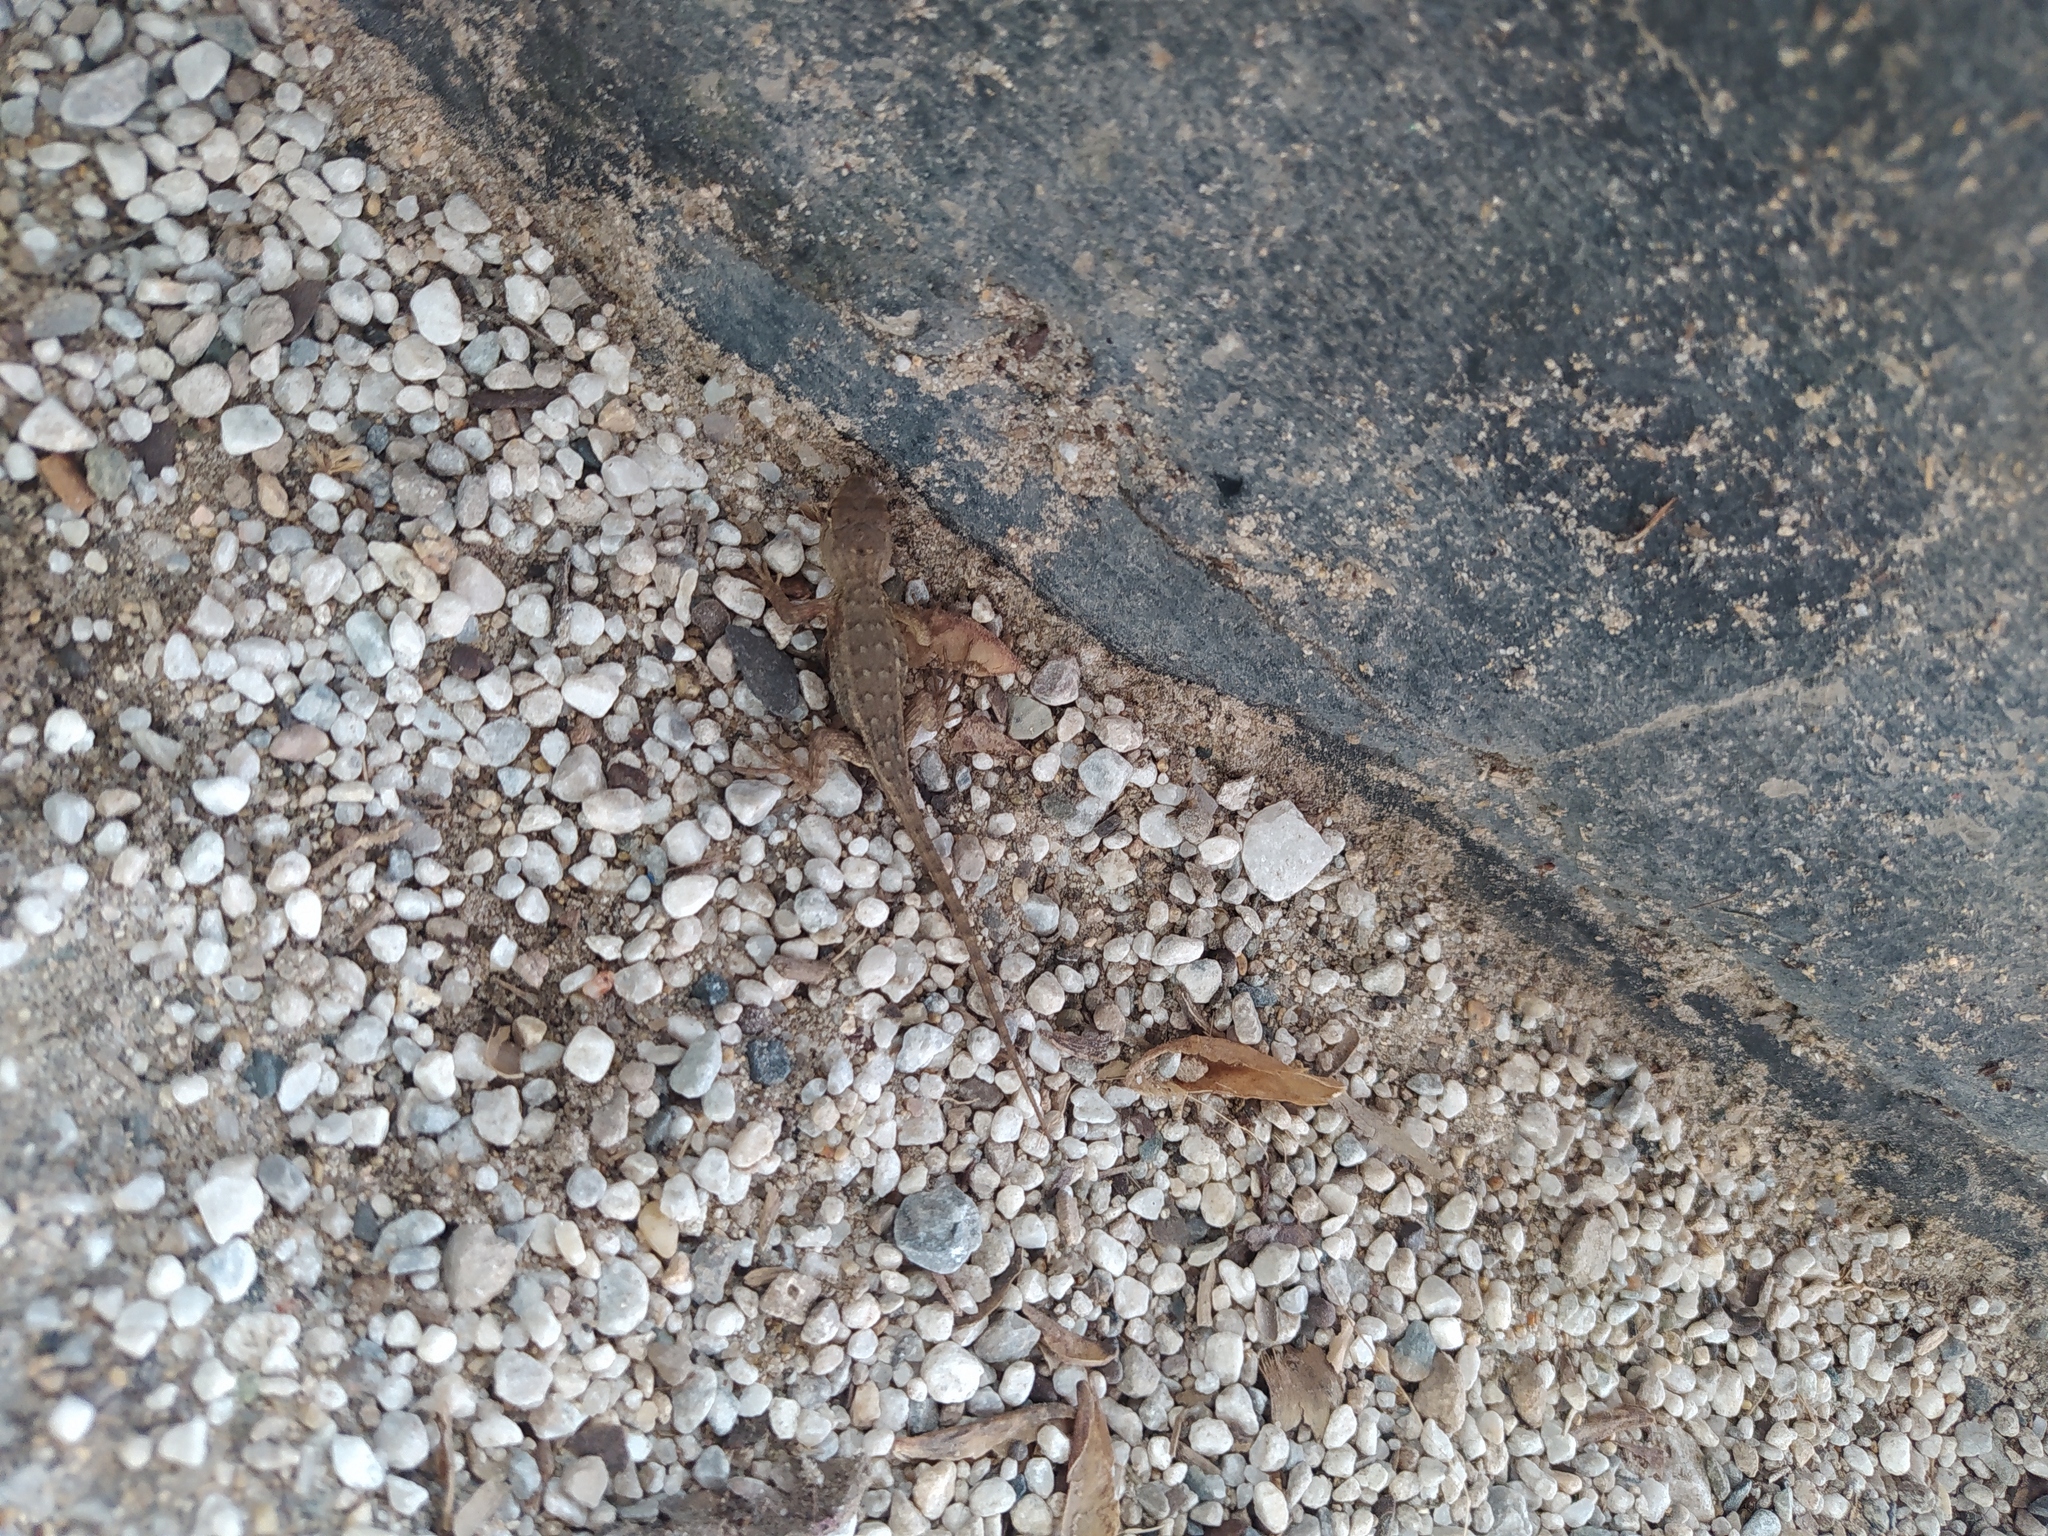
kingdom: Animalia
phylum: Chordata
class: Squamata
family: Dactyloidae
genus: Anolis
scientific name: Anolis nebulosus
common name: Clouded anole
